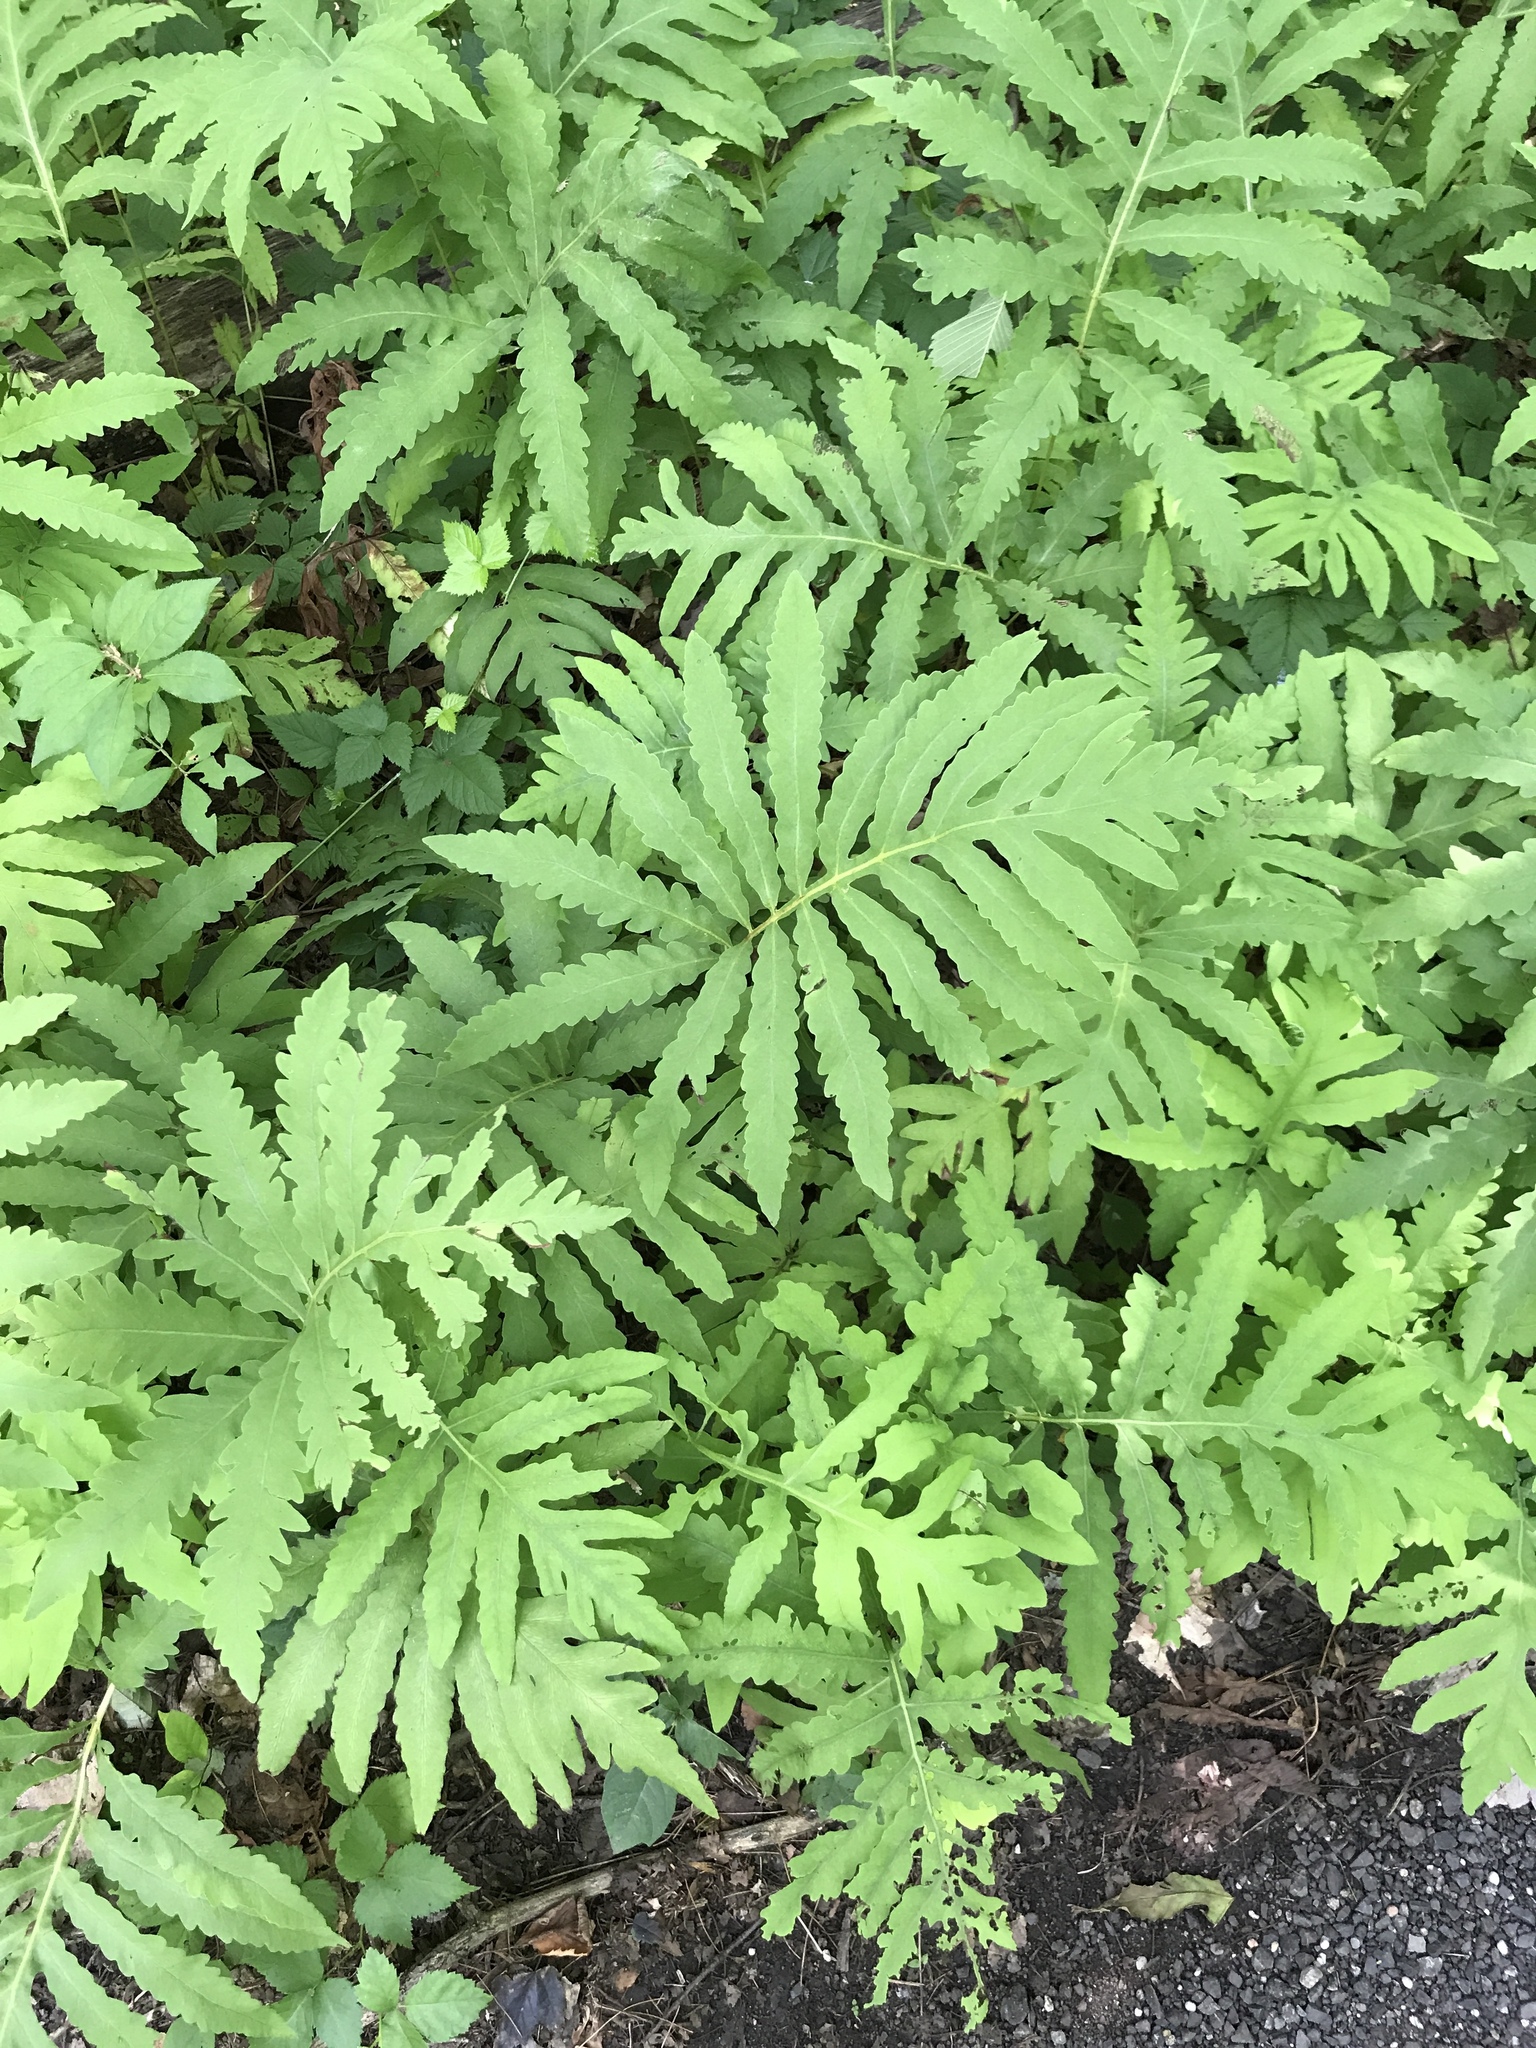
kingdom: Plantae
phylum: Tracheophyta
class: Polypodiopsida
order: Polypodiales
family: Onocleaceae
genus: Onoclea
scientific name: Onoclea sensibilis
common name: Sensitive fern
